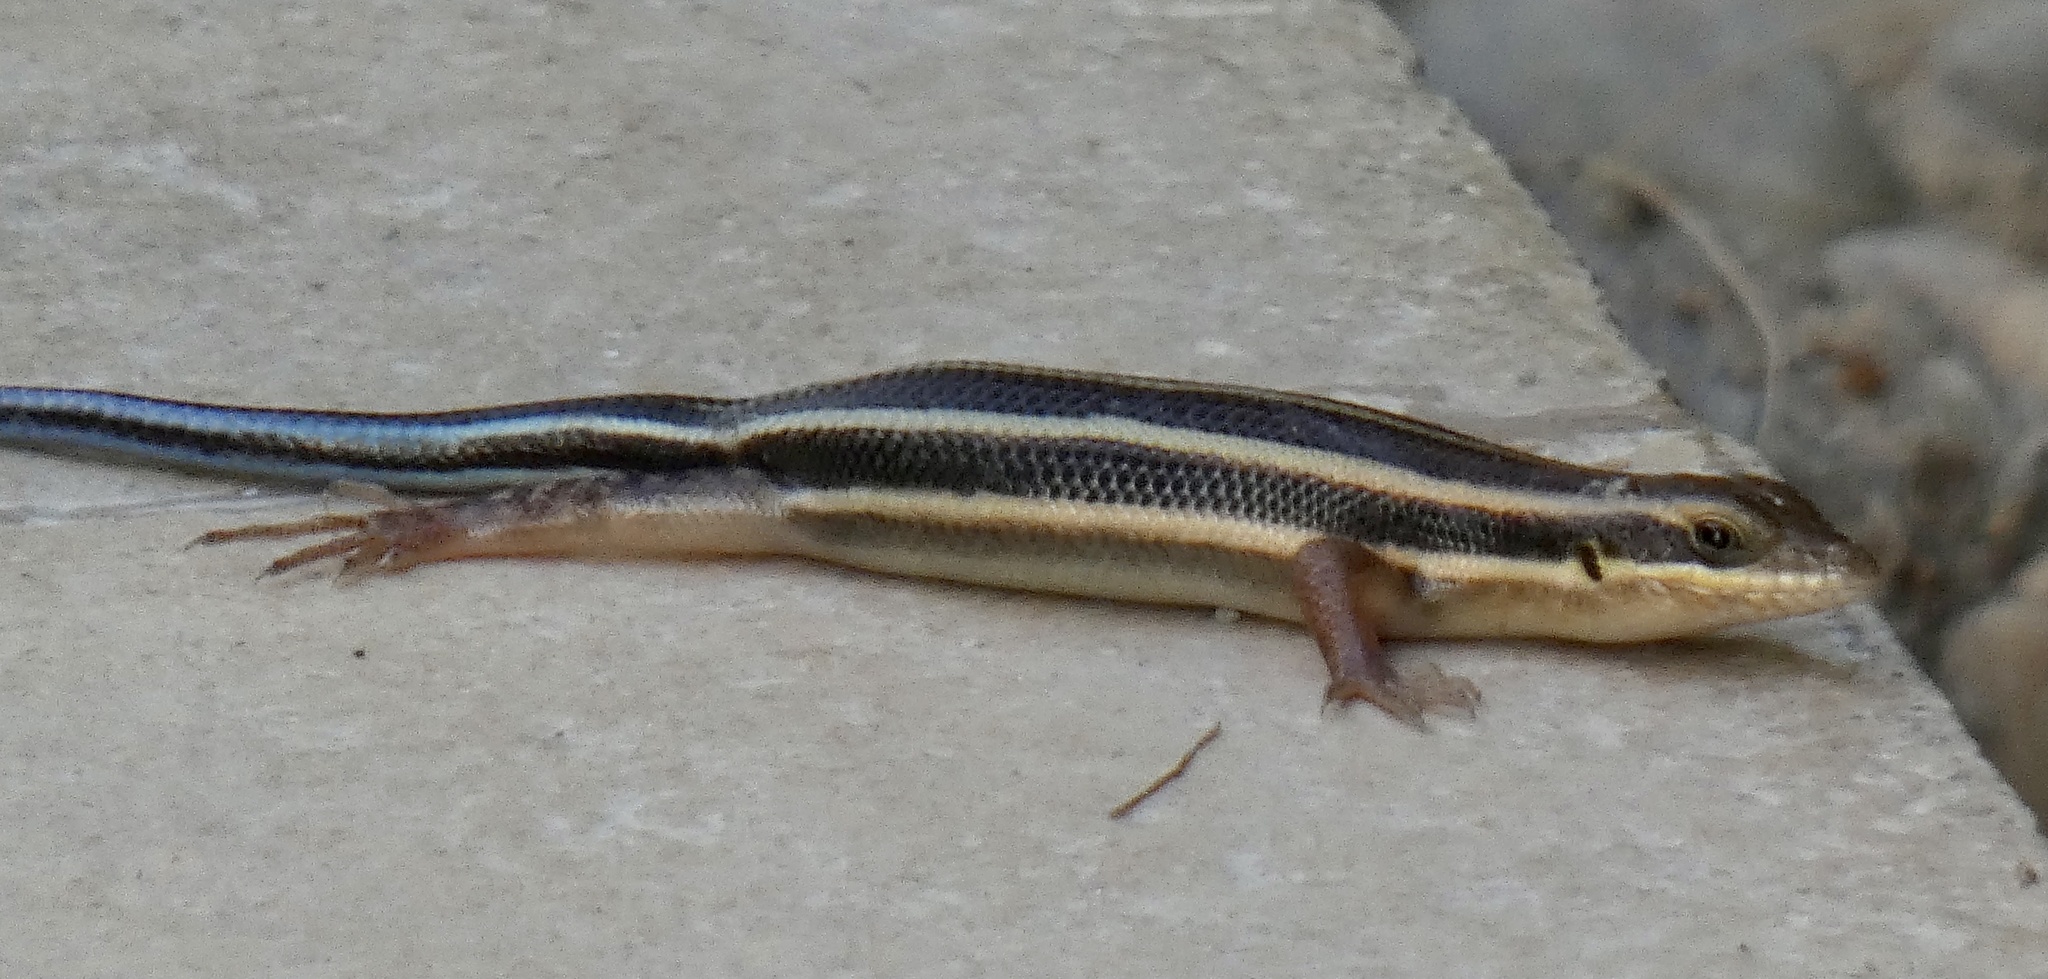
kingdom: Animalia
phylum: Chordata
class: Squamata
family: Scincidae
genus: Trachylepis
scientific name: Trachylepis quinquetaeniata
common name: African five-lined skink
